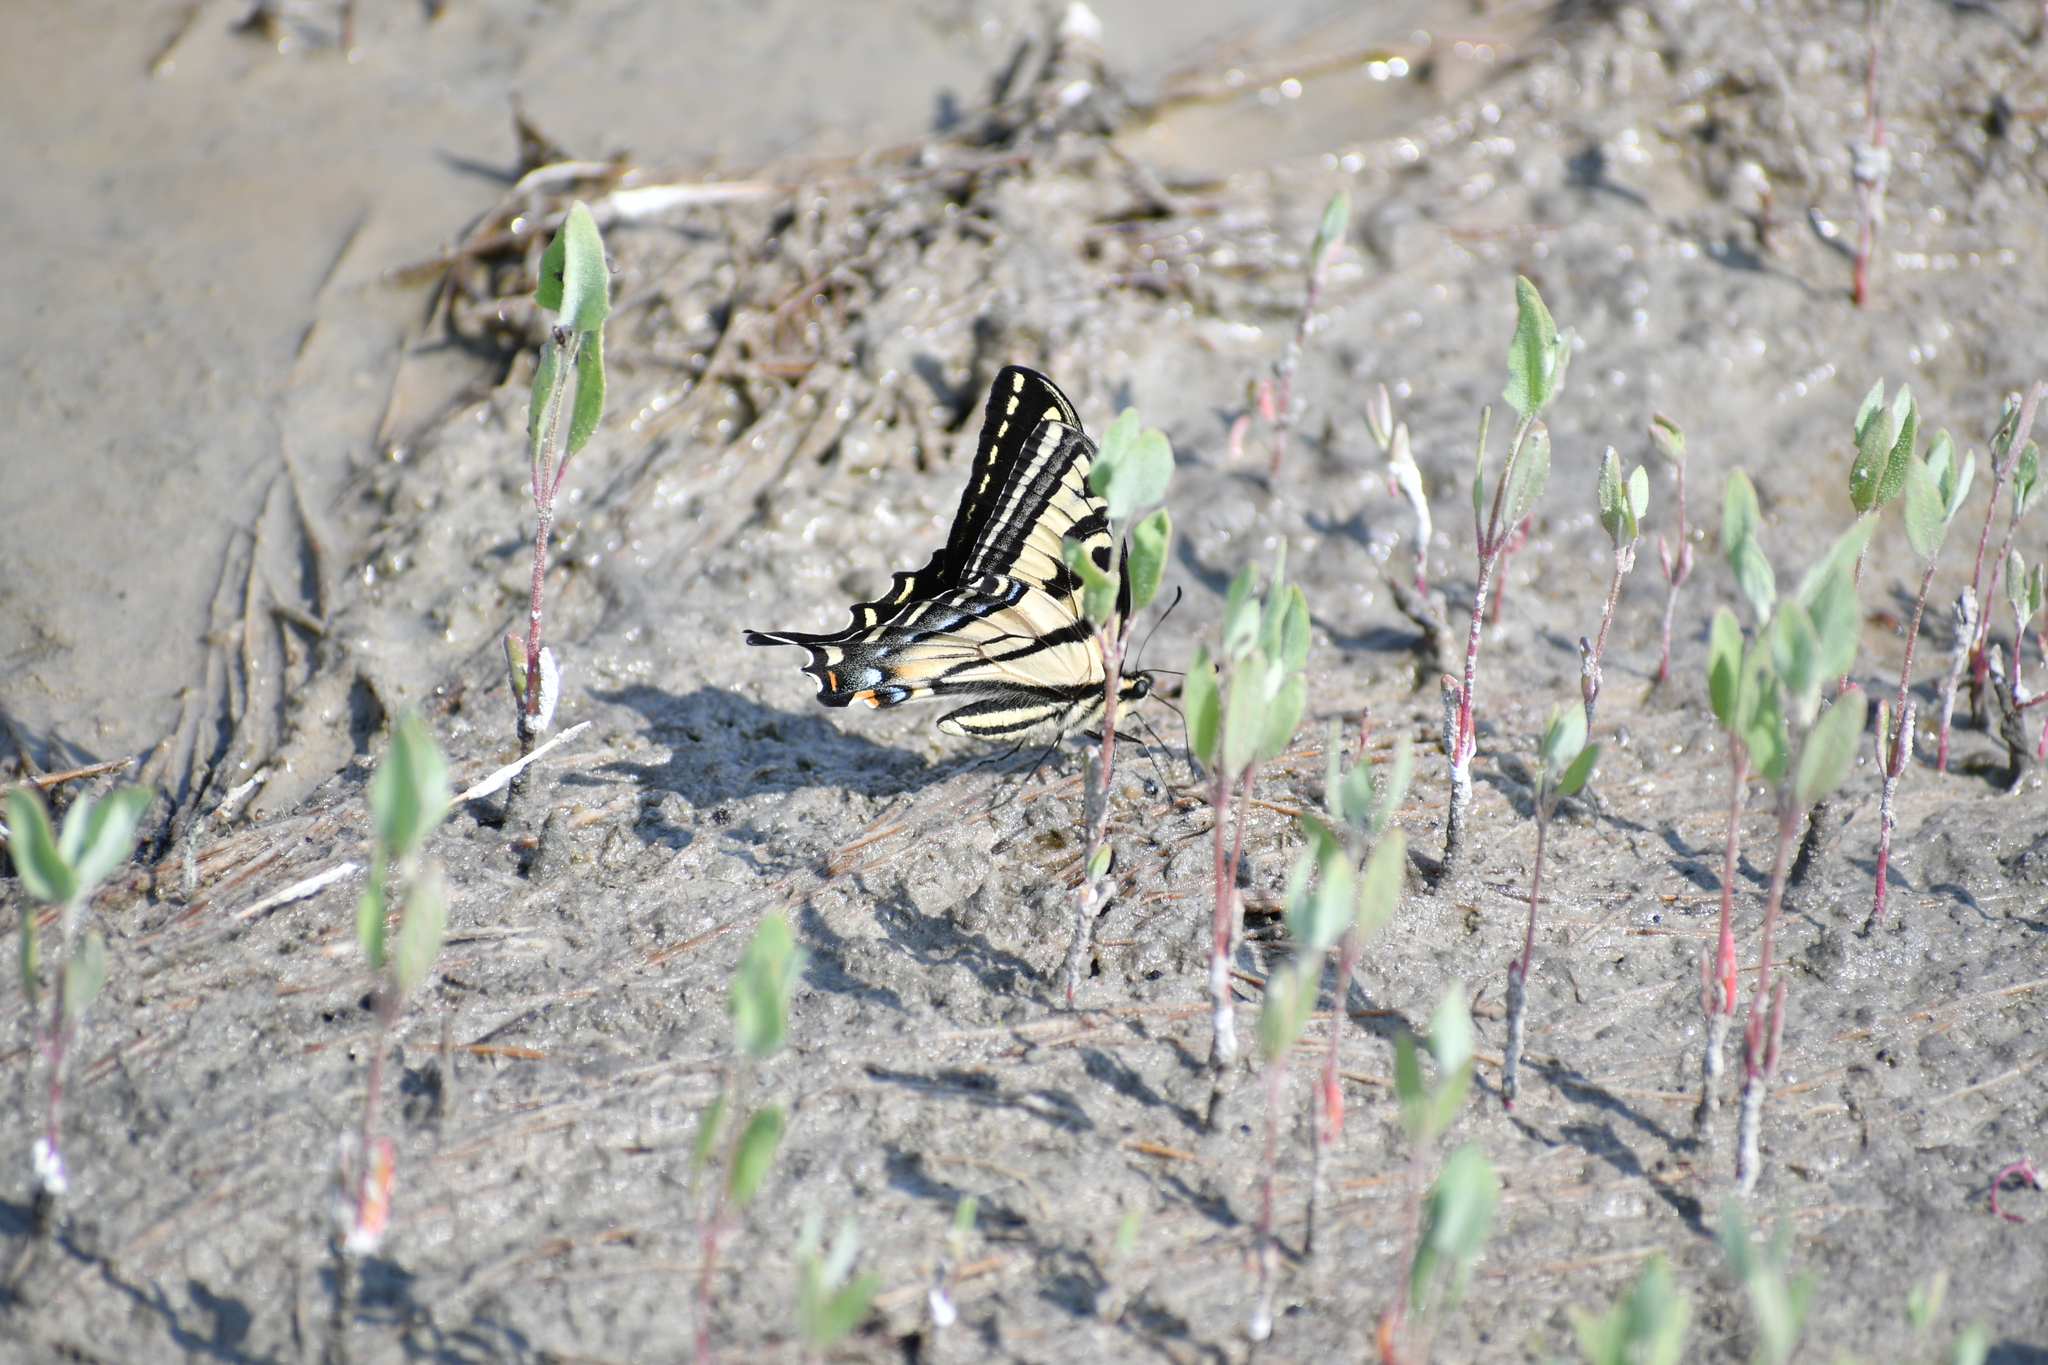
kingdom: Animalia
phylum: Arthropoda
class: Insecta
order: Lepidoptera
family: Papilionidae
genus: Papilio
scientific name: Papilio rutulus
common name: Western tiger swallowtail
